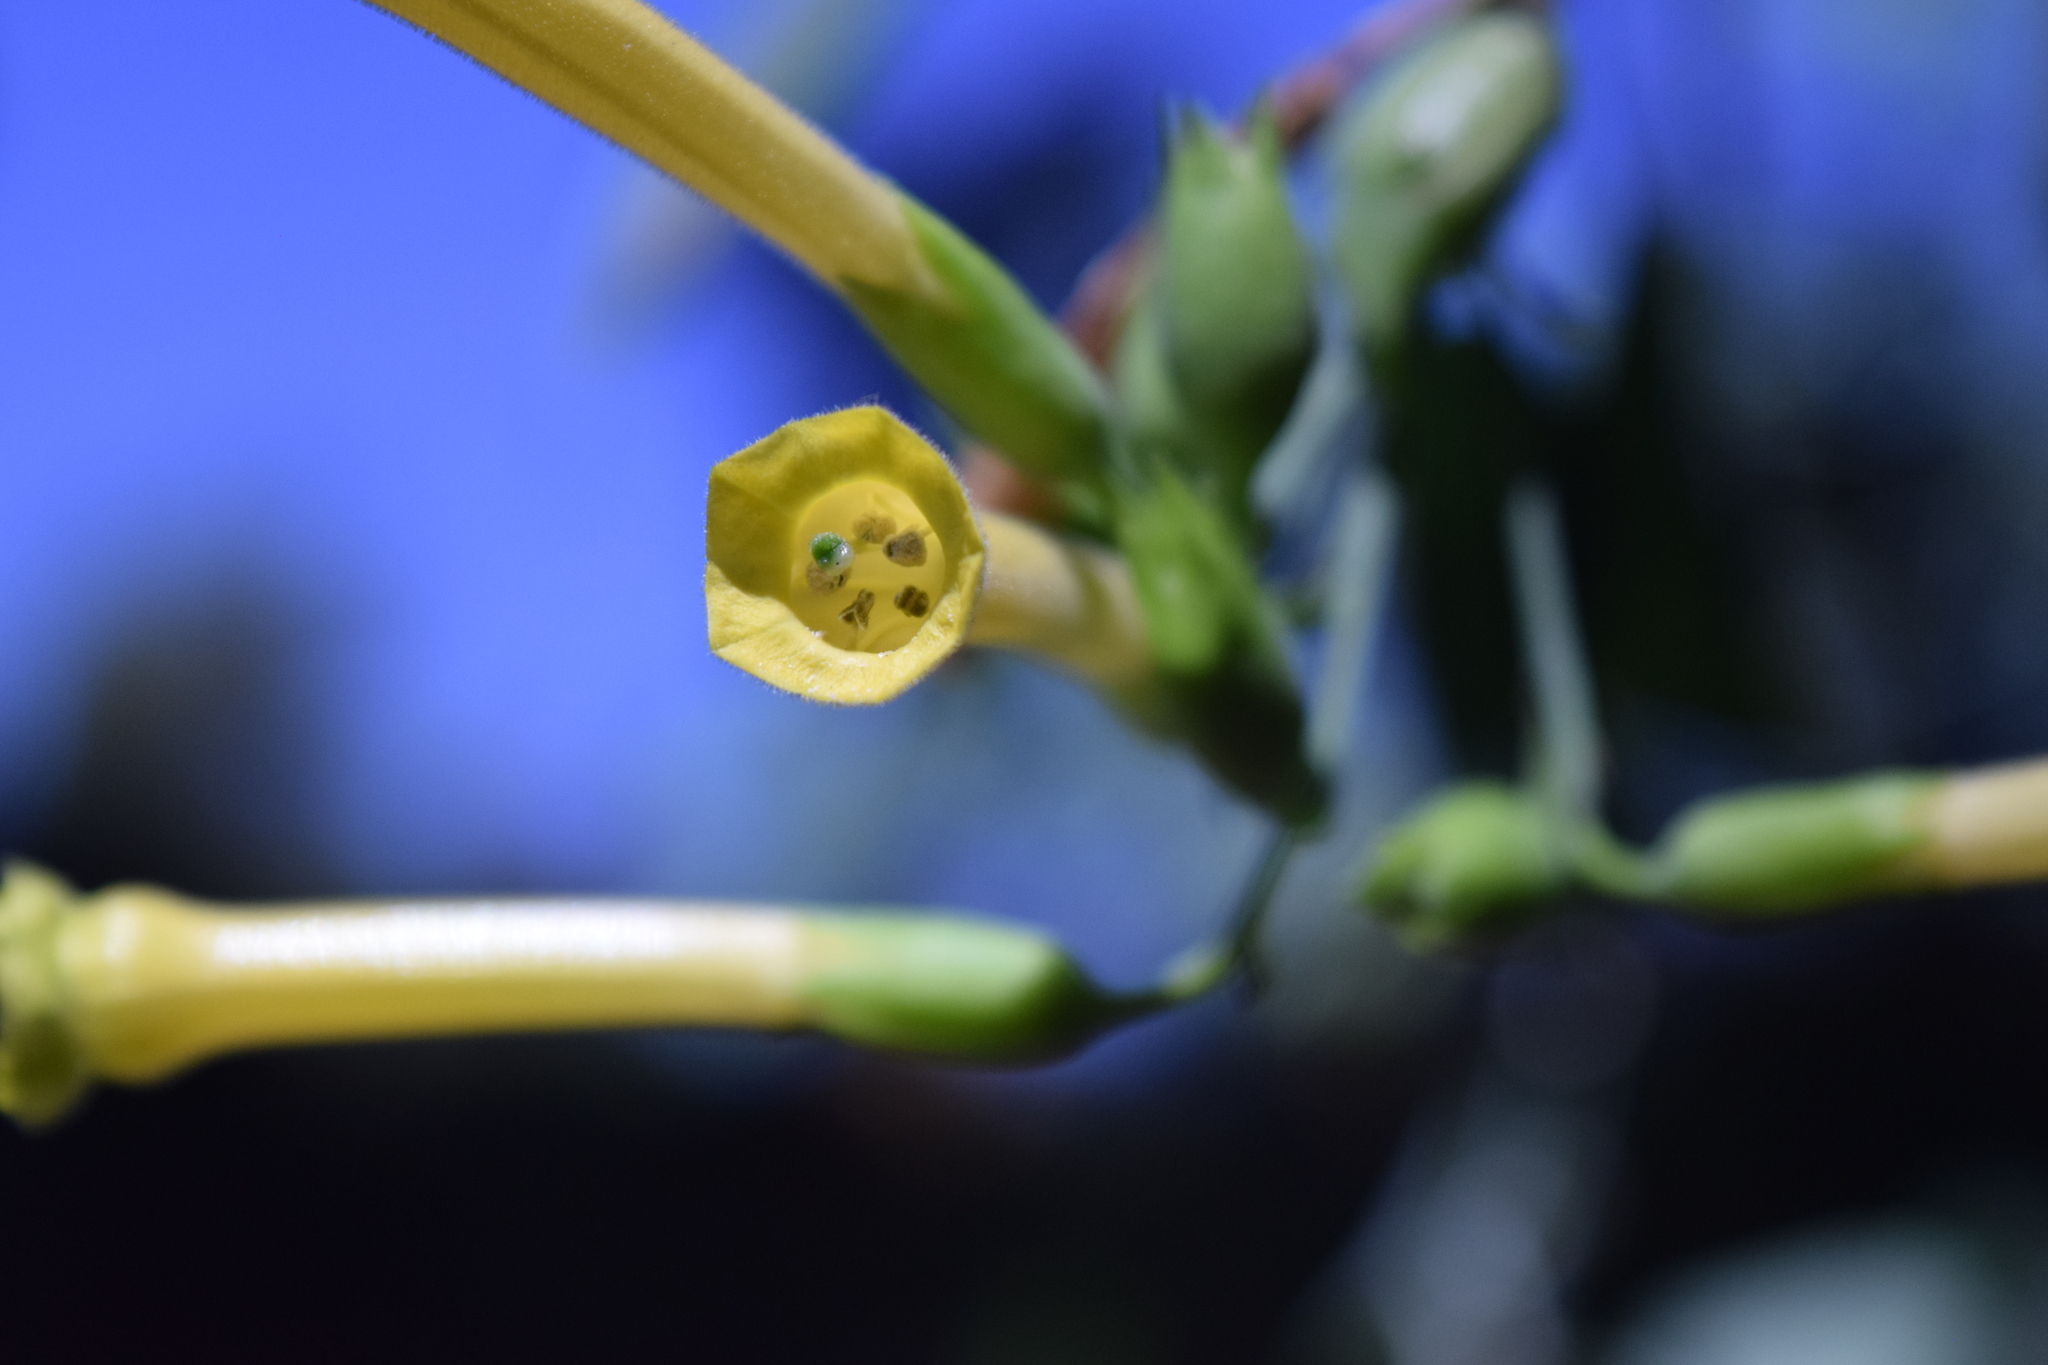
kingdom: Plantae
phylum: Tracheophyta
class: Magnoliopsida
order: Solanales
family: Solanaceae
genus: Nicotiana
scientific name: Nicotiana glauca
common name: Tree tobacco
